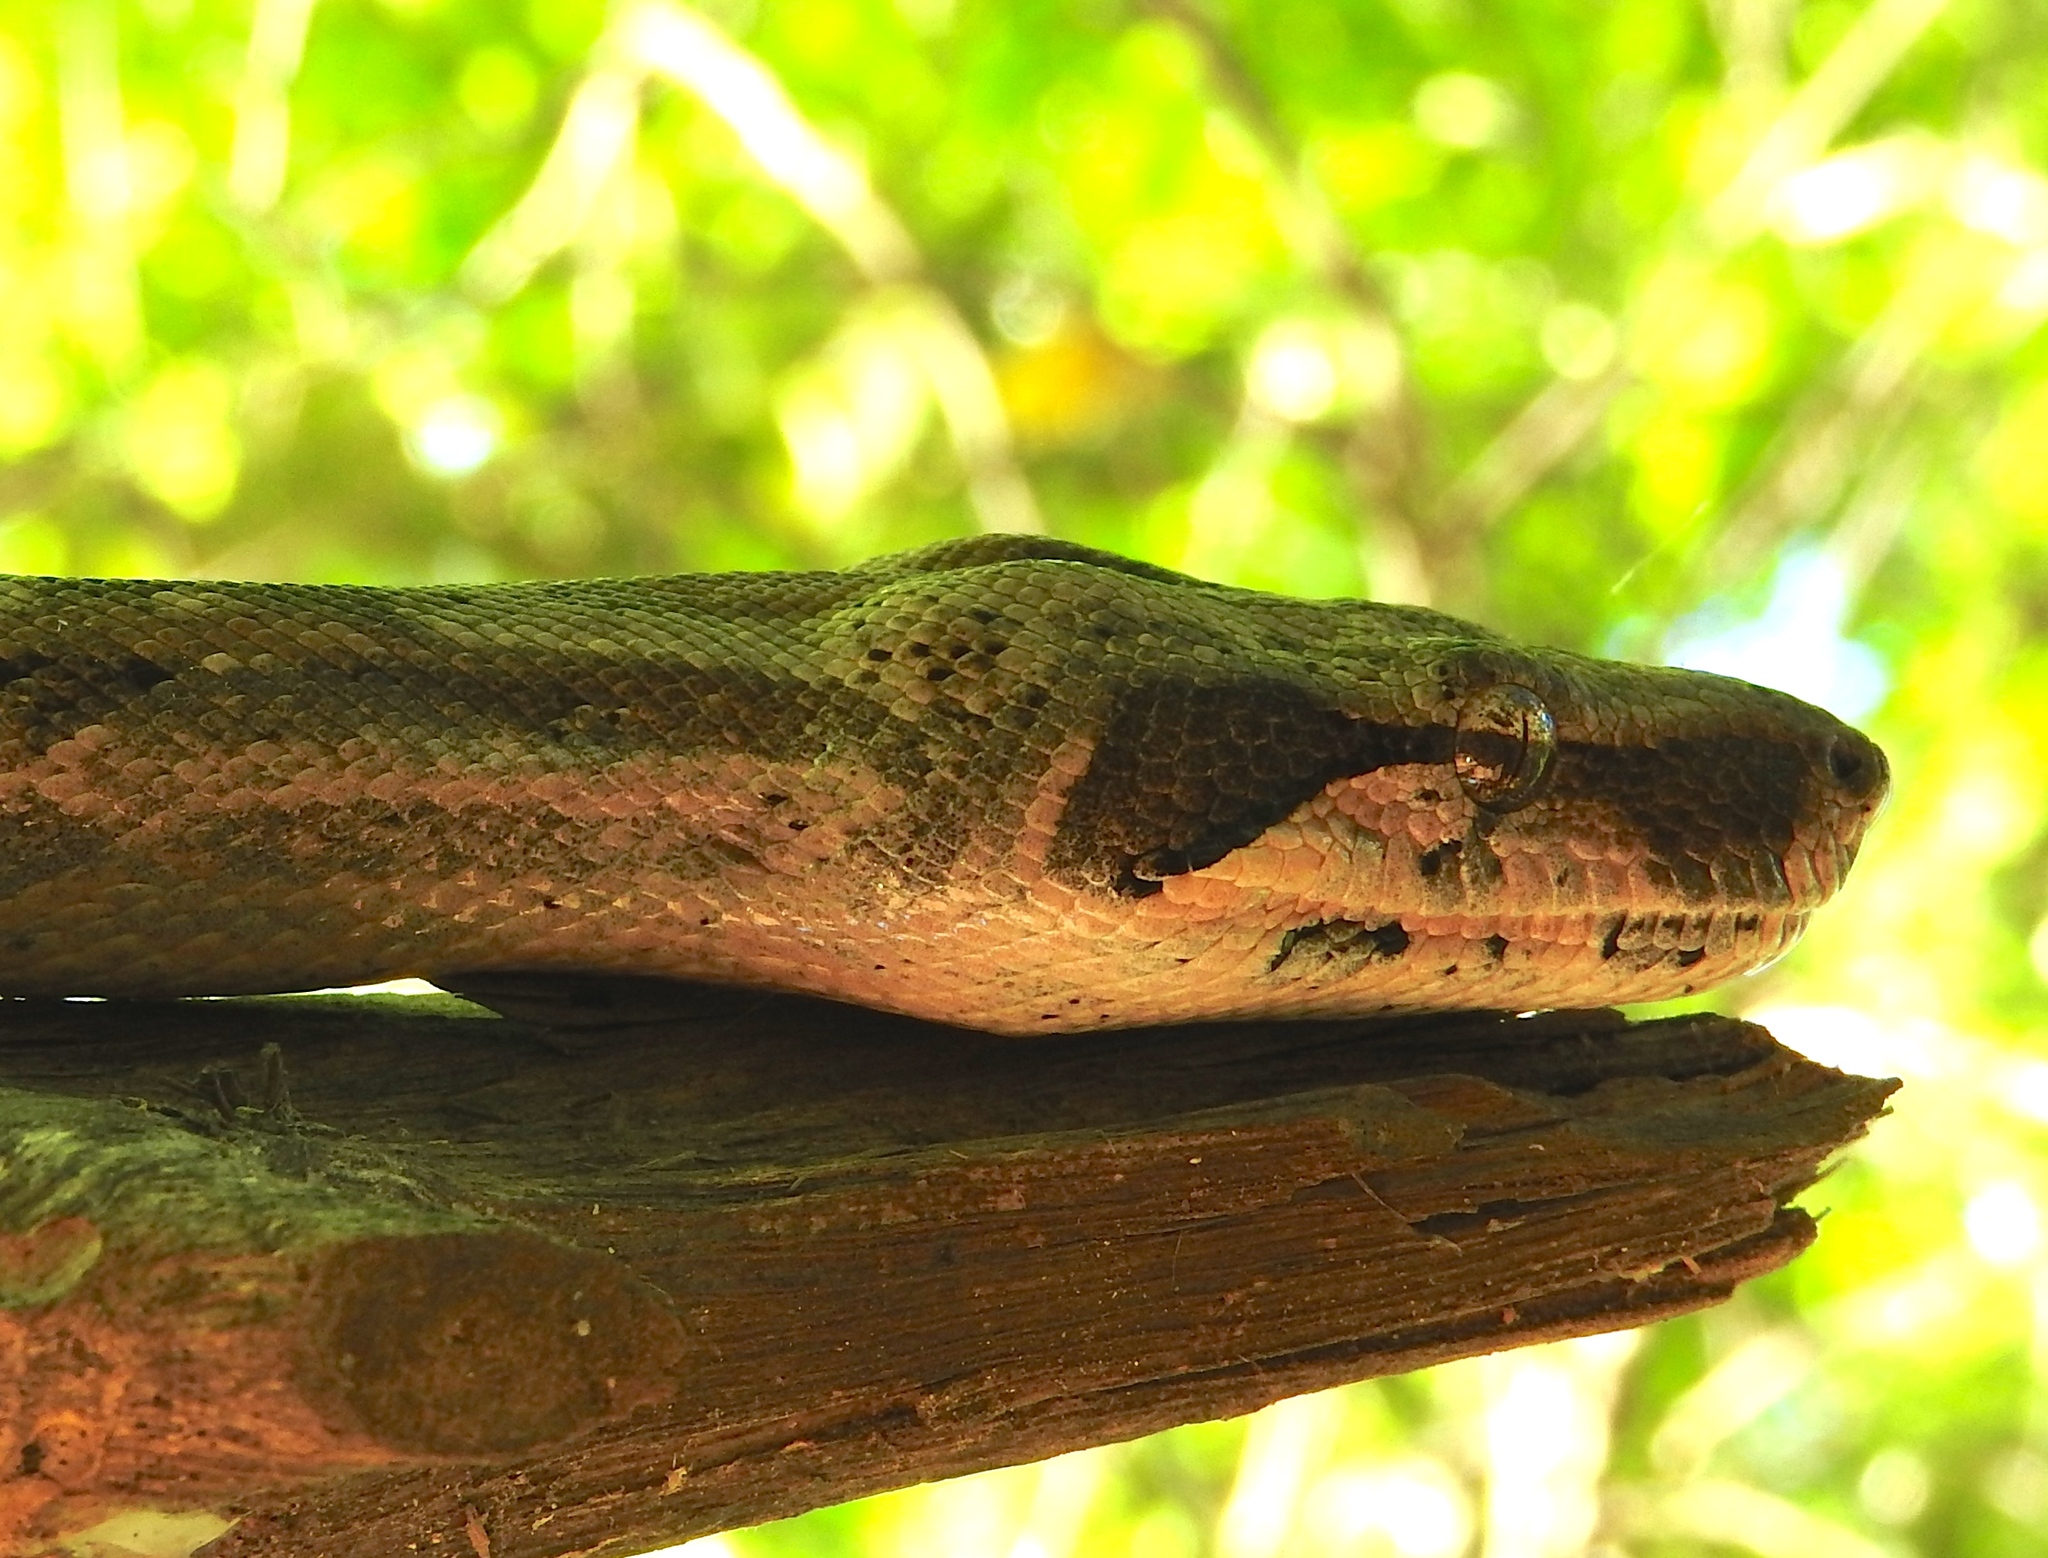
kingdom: Animalia
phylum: Chordata
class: Squamata
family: Boidae
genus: Boa
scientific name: Boa
